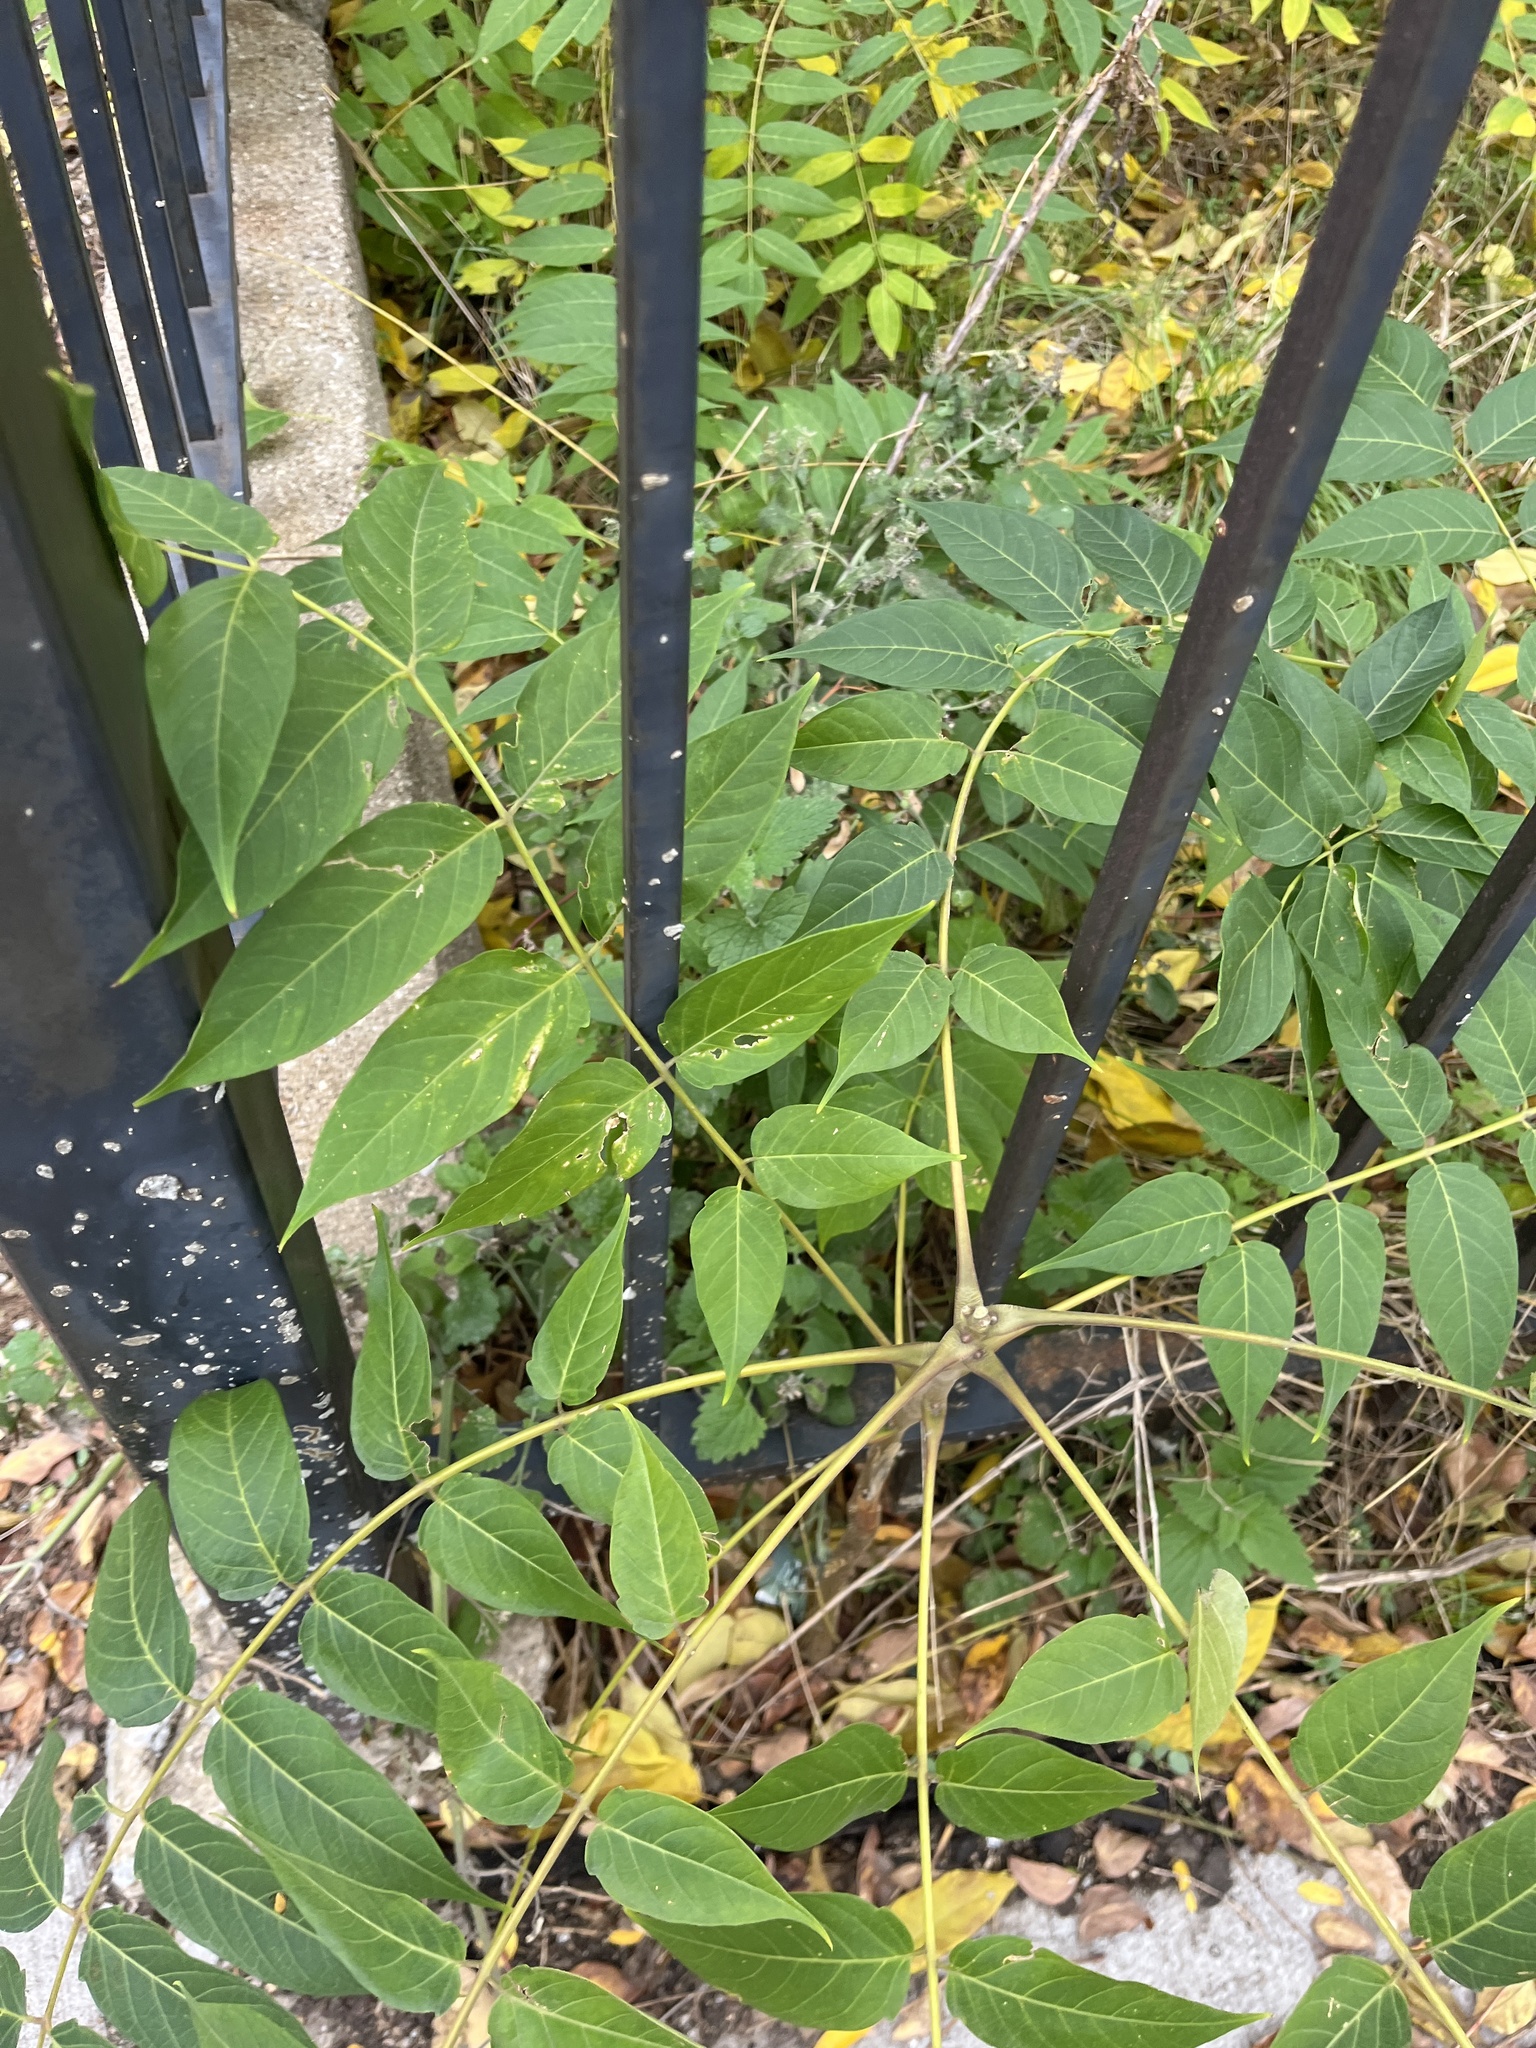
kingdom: Plantae
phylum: Tracheophyta
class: Magnoliopsida
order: Fagales
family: Juglandaceae
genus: Juglans
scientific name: Juglans nigra
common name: Black walnut
